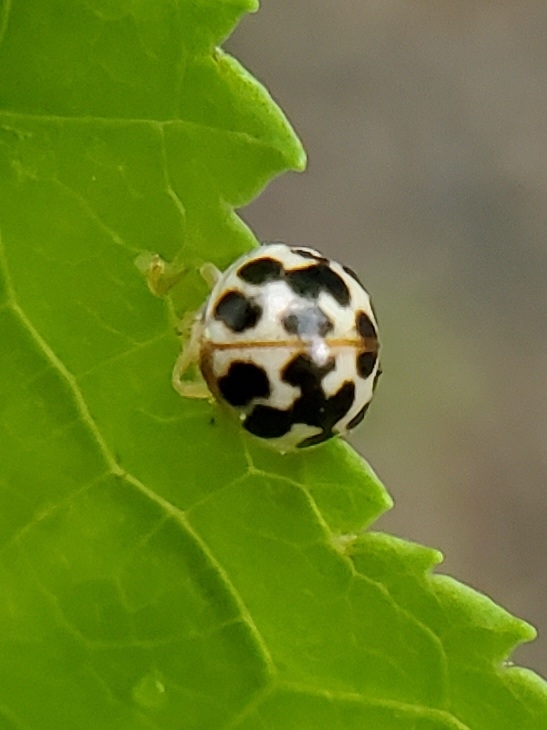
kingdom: Animalia
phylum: Arthropoda
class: Insecta
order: Coleoptera
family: Coccinellidae
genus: Psyllobora
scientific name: Psyllobora vigintimaculata
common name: Ladybird beetle
